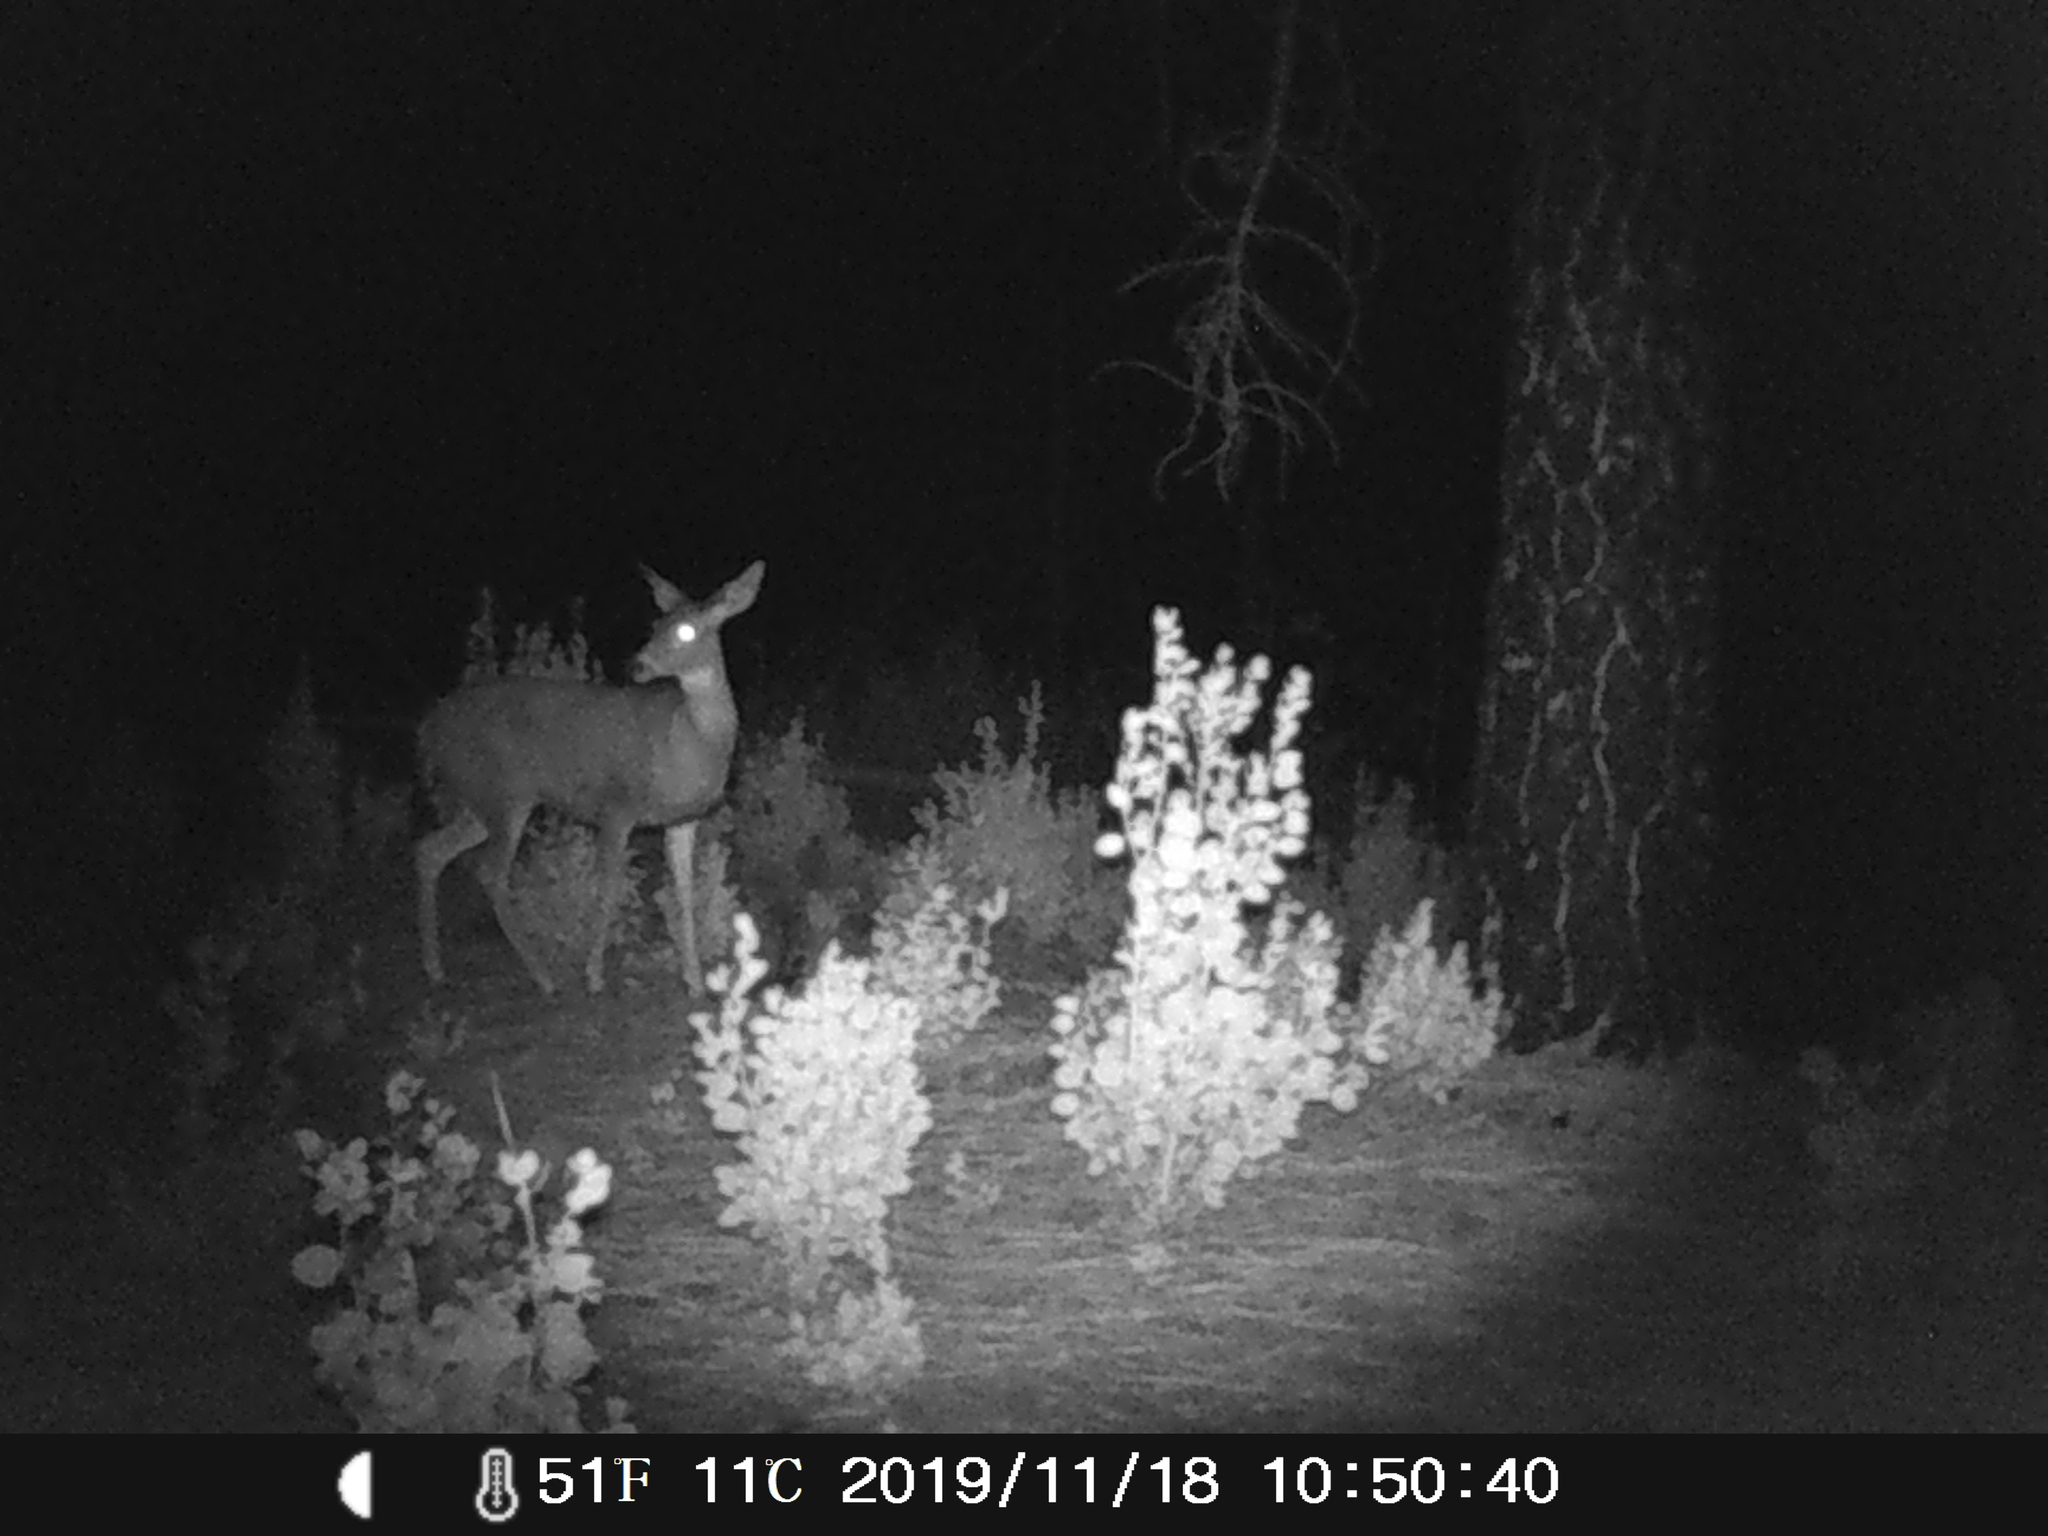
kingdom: Animalia
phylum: Chordata
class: Mammalia
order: Artiodactyla
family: Cervidae
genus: Odocoileus
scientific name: Odocoileus hemionus
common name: Mule deer
